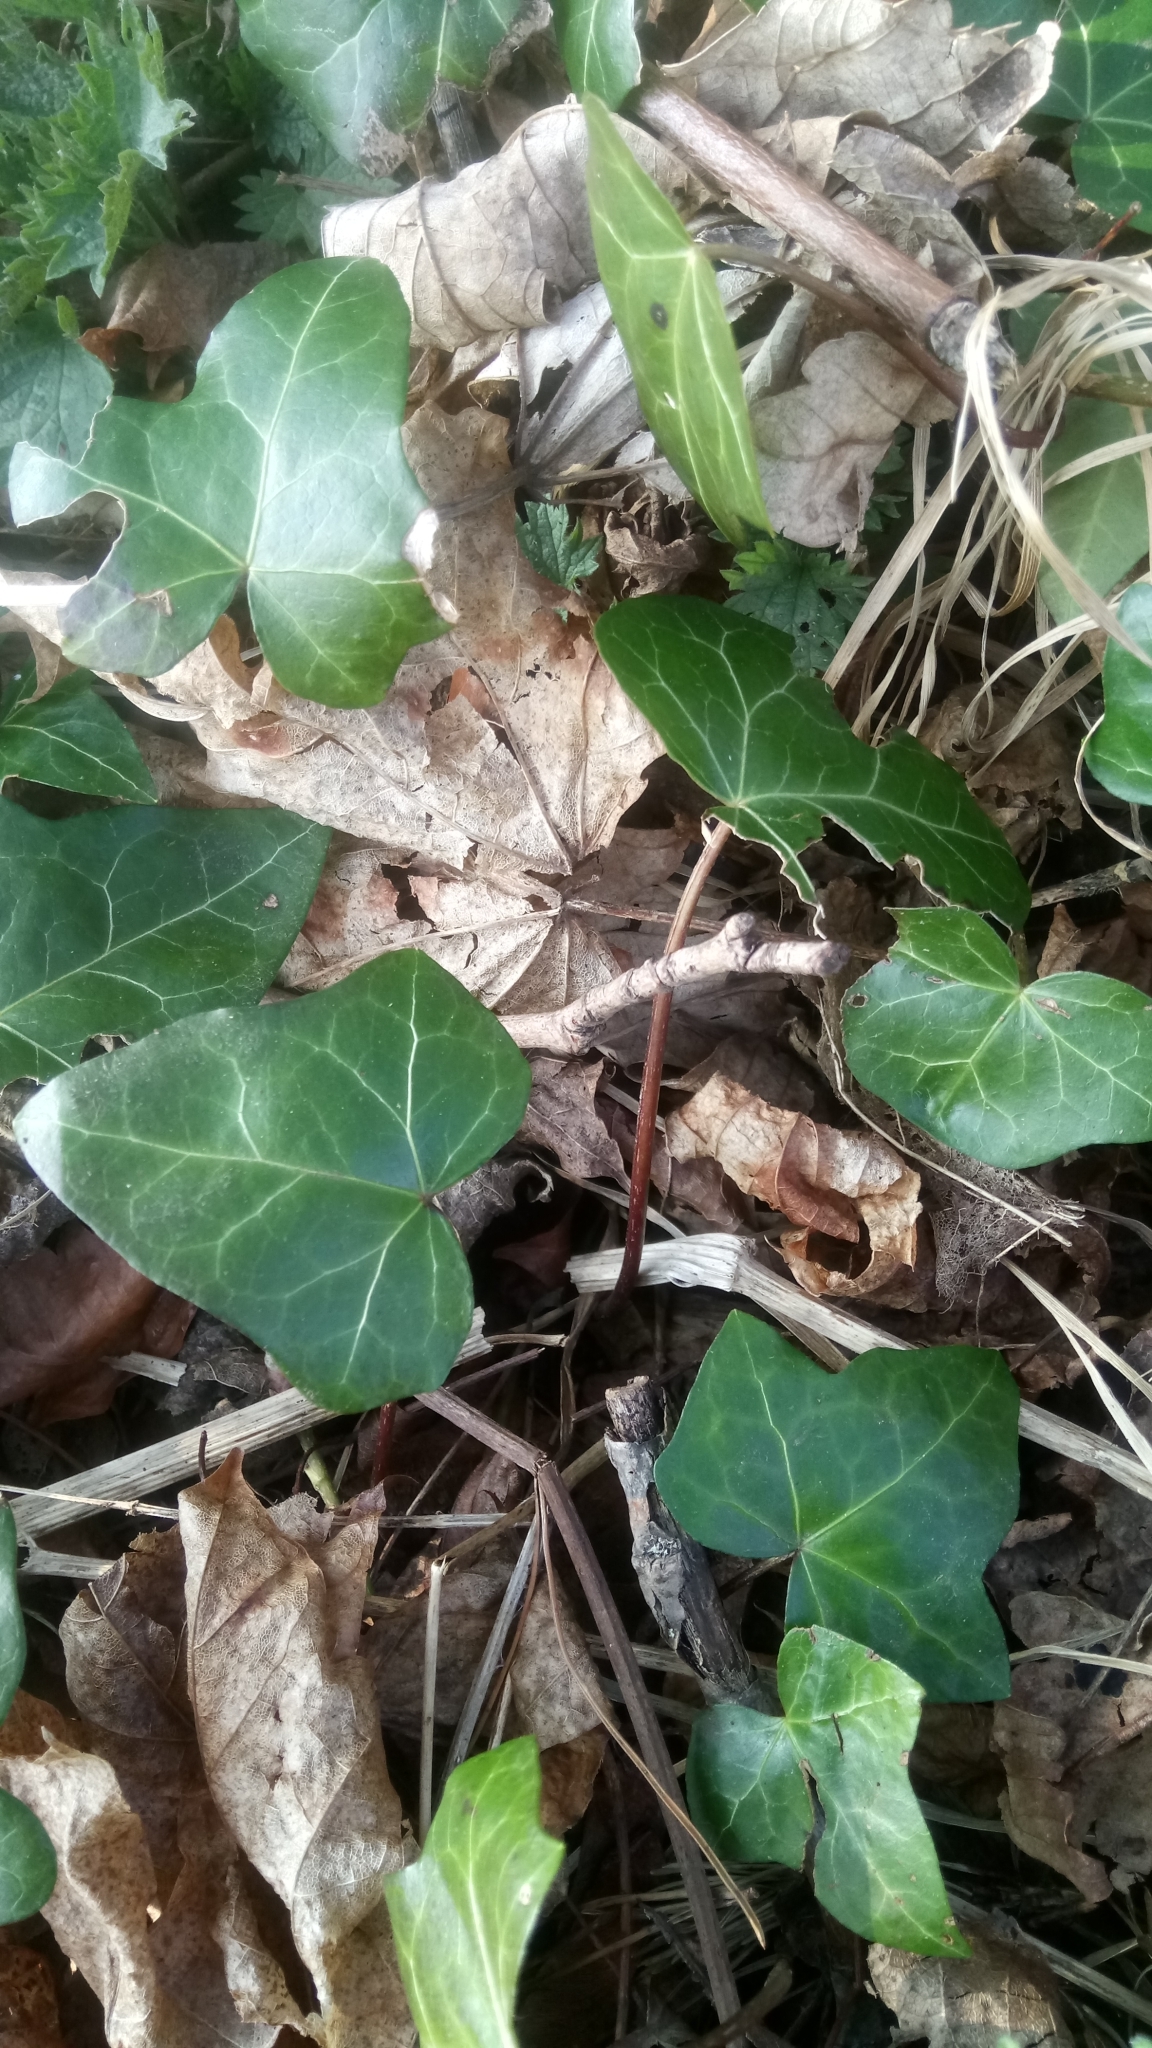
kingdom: Plantae
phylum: Tracheophyta
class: Magnoliopsida
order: Apiales
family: Araliaceae
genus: Hedera
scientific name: Hedera helix
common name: Ivy
